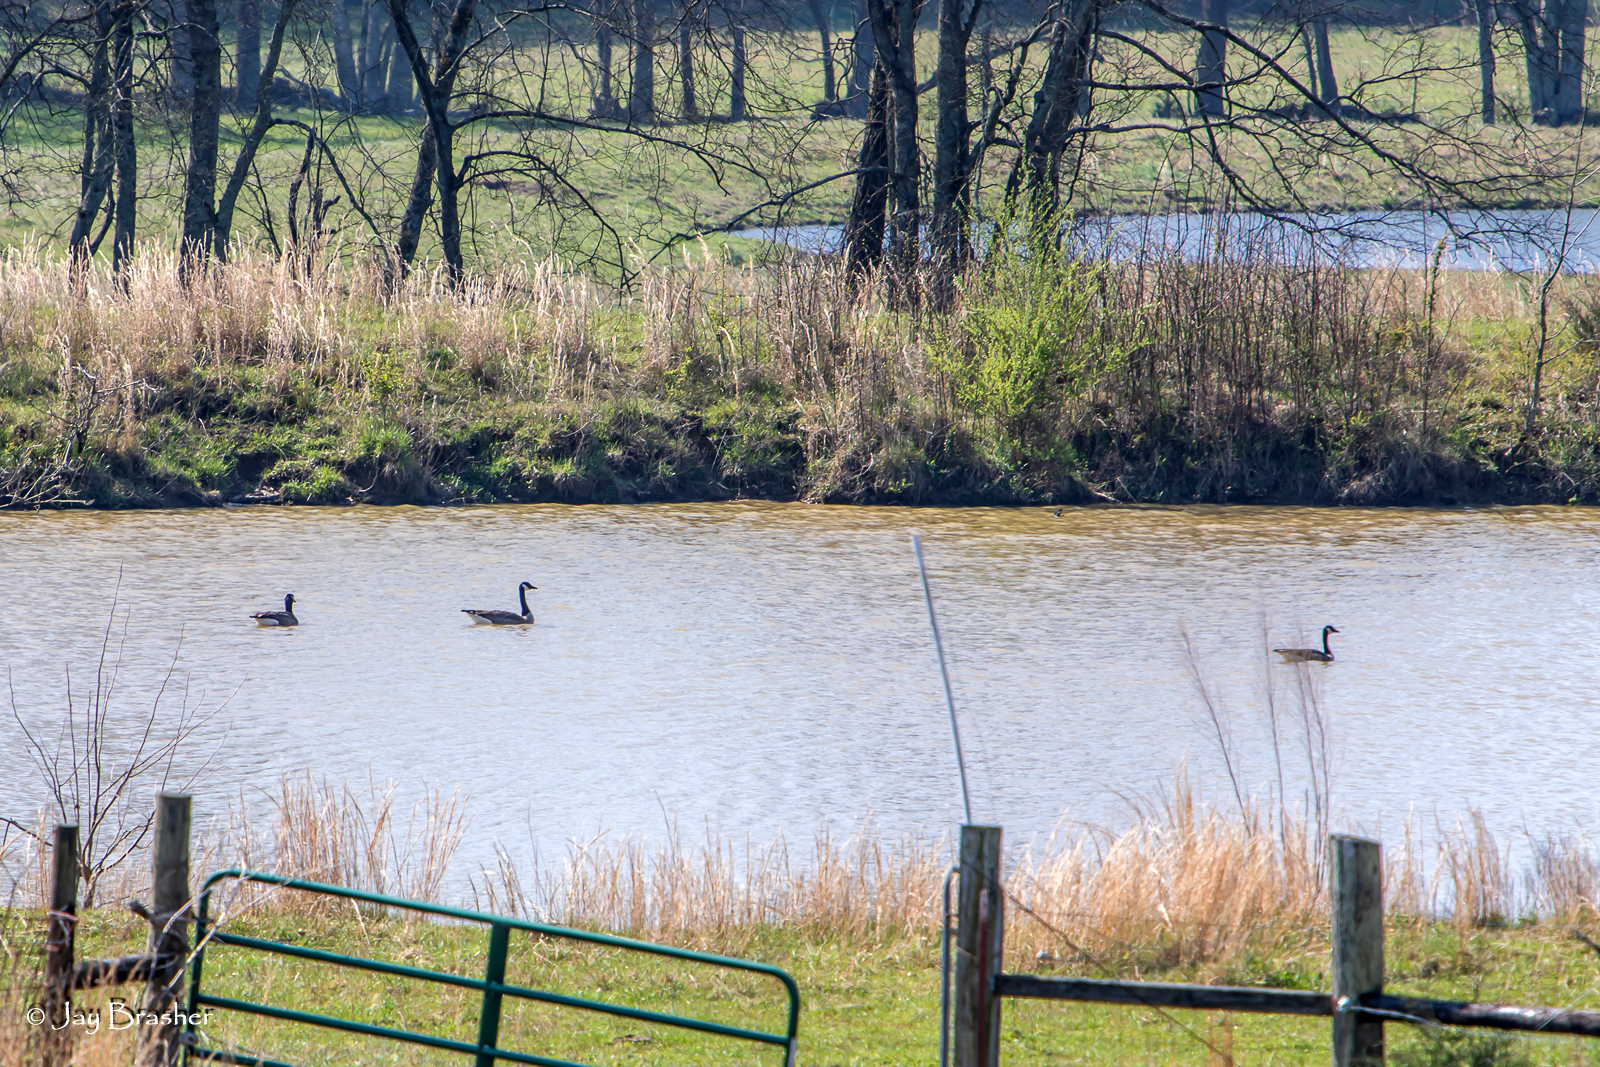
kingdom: Animalia
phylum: Chordata
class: Aves
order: Anseriformes
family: Anatidae
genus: Branta
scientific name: Branta canadensis
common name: Canada goose
